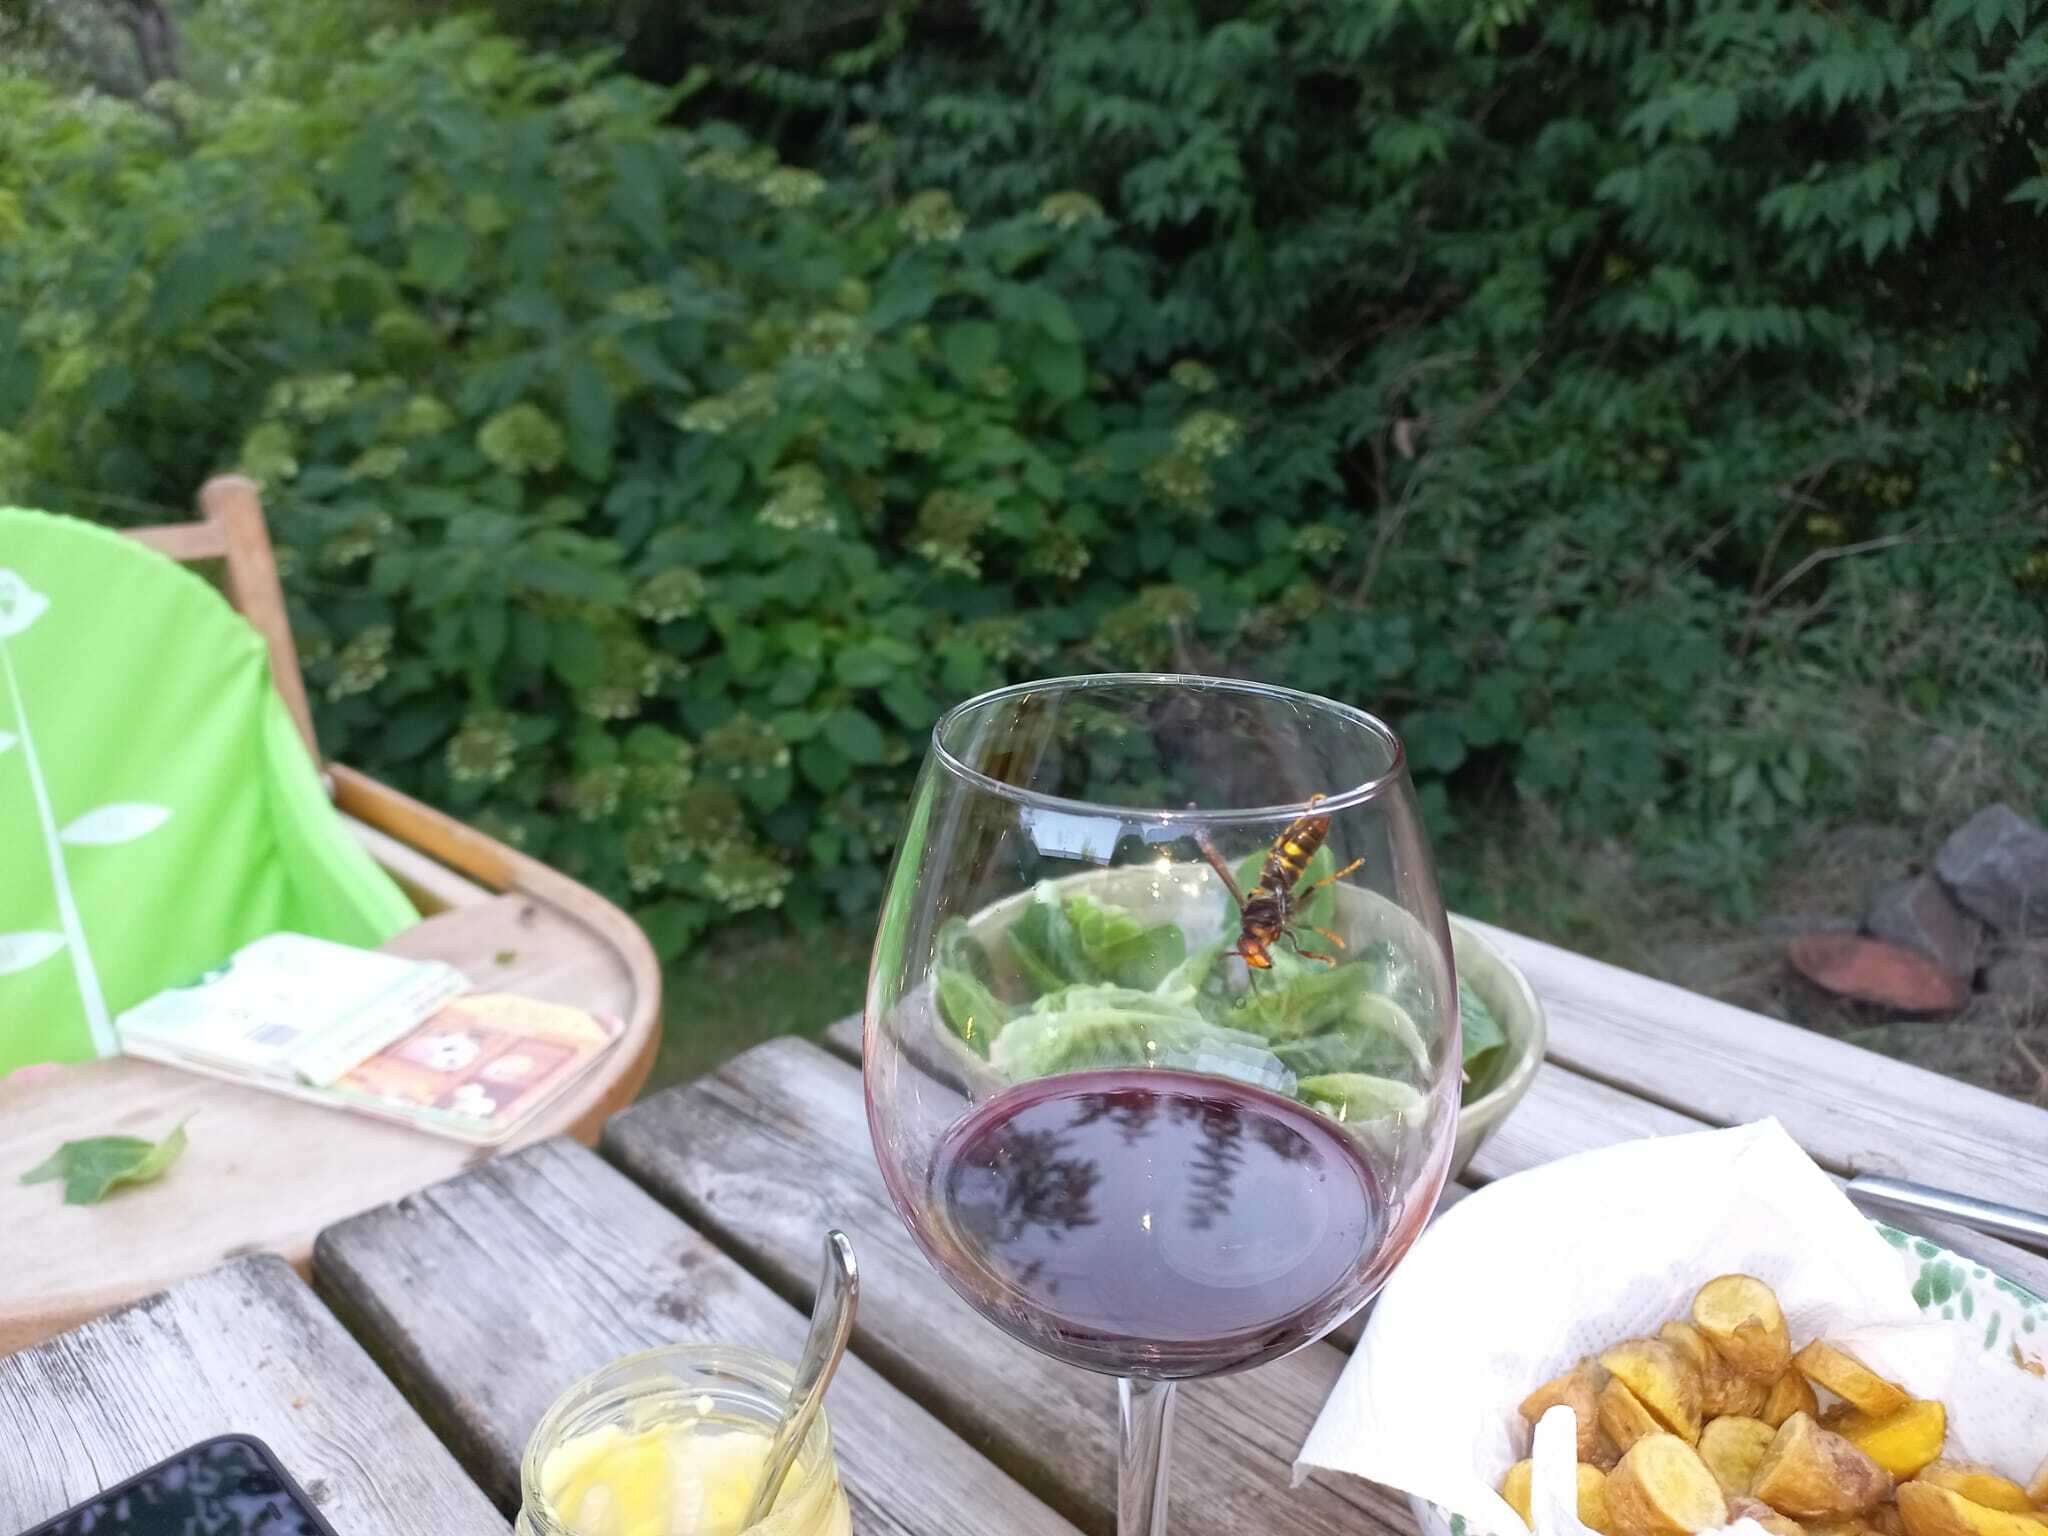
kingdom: Animalia
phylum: Arthropoda
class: Insecta
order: Hymenoptera
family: Vespidae
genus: Vespa
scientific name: Vespa velutina
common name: Asian hornet
